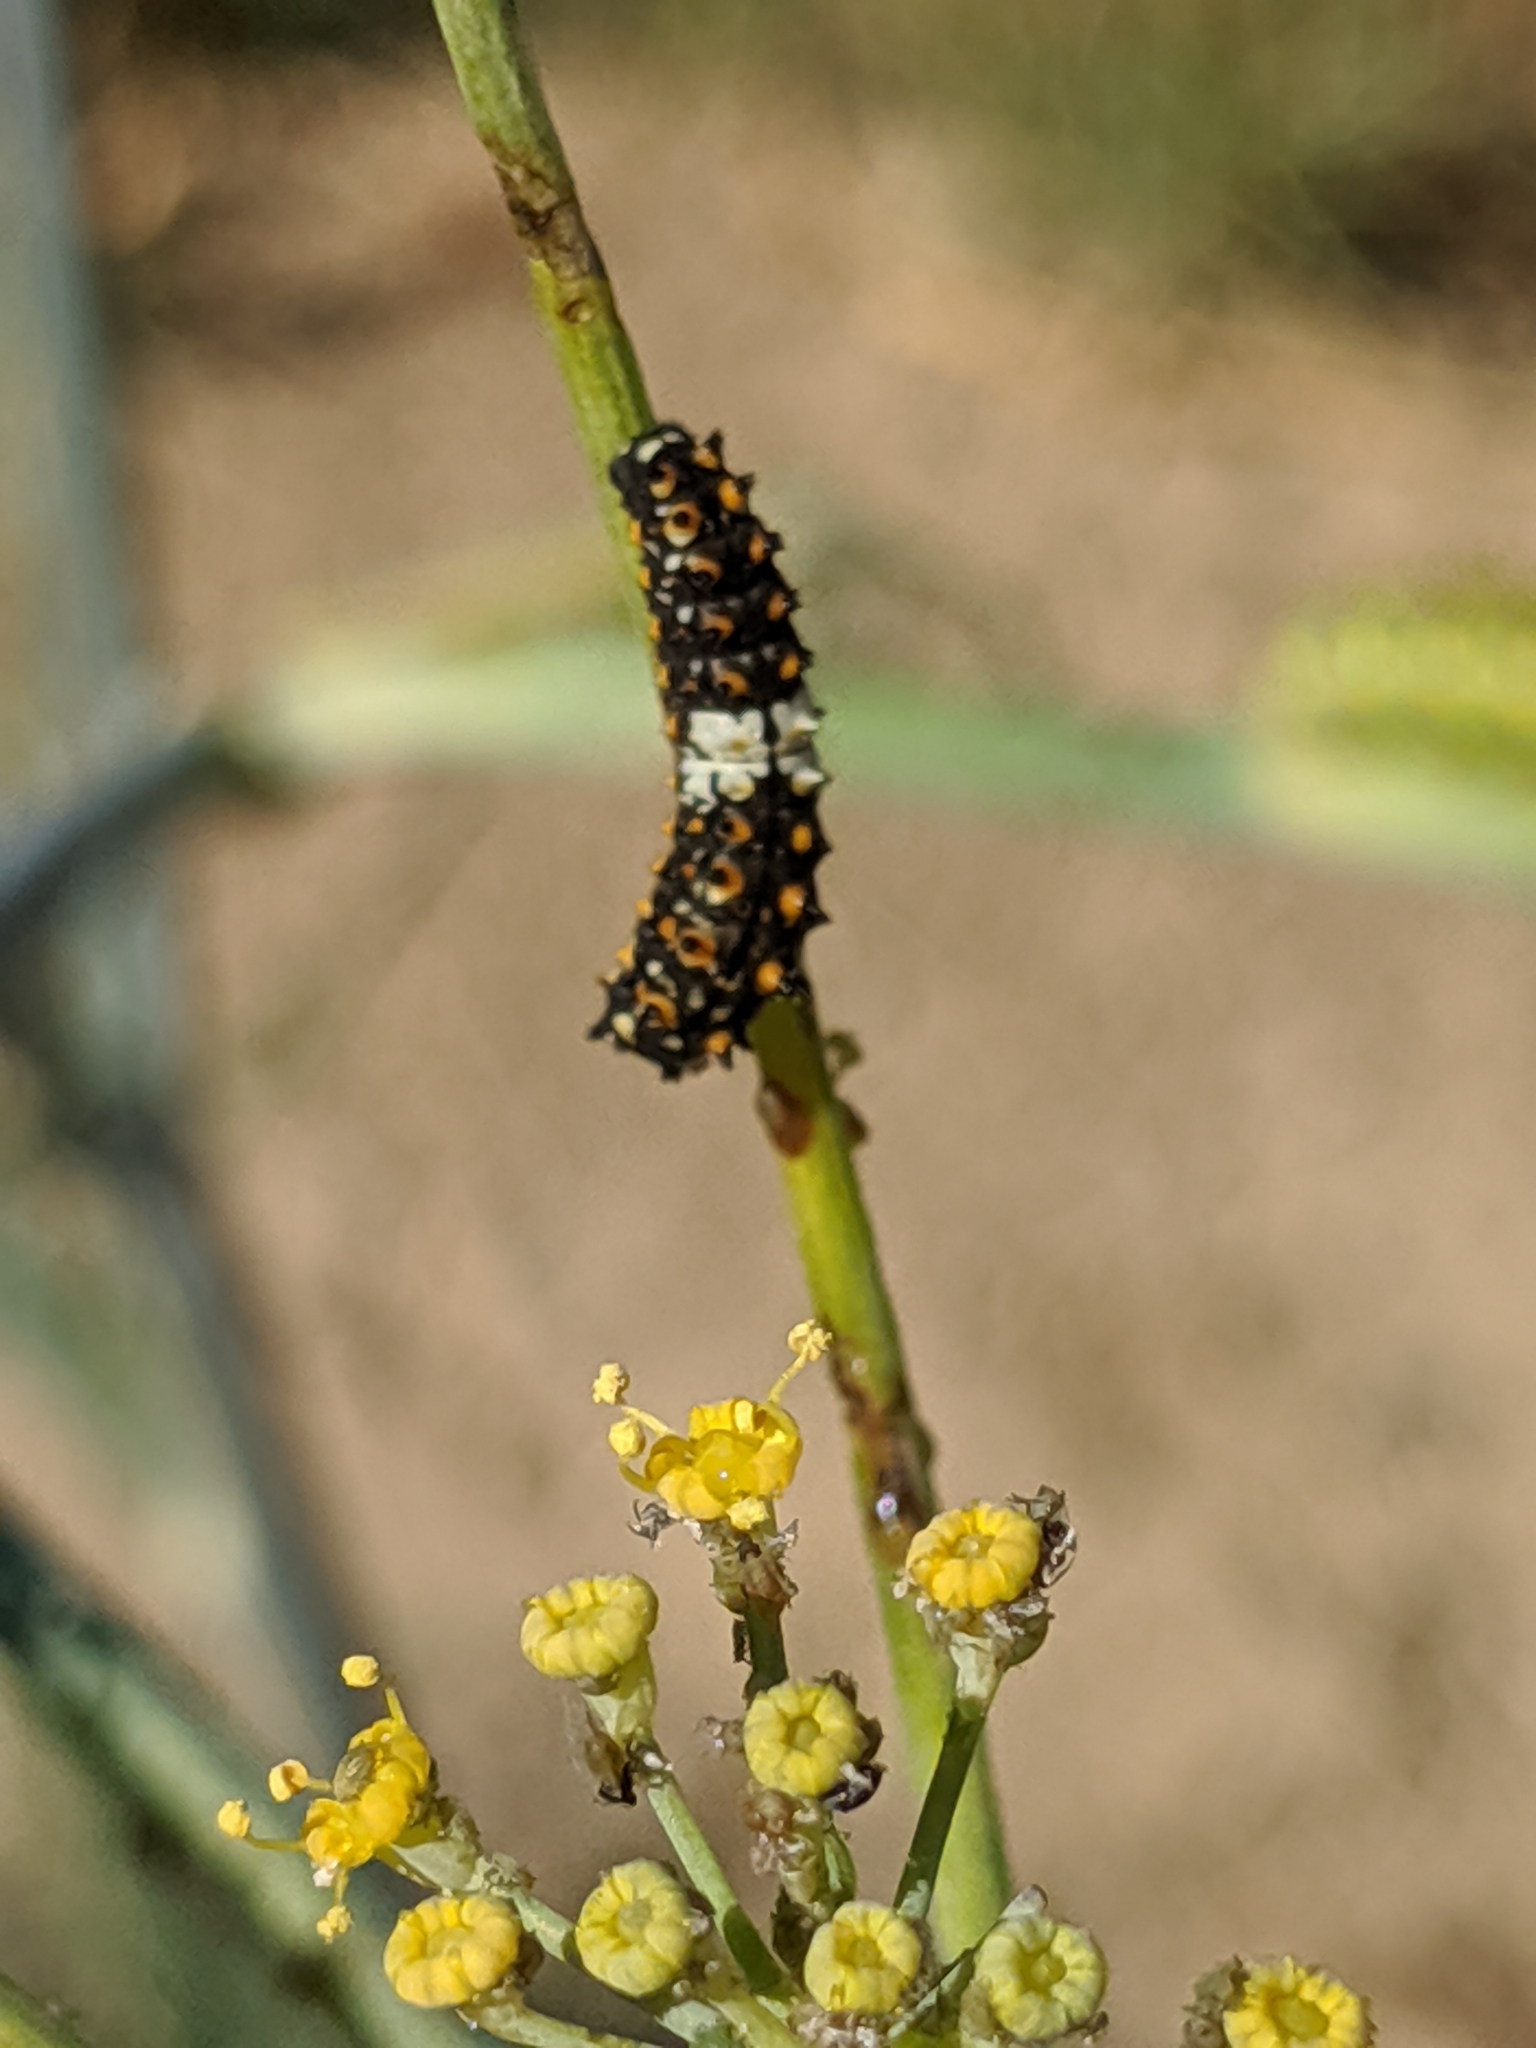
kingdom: Animalia
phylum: Arthropoda
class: Insecta
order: Lepidoptera
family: Papilionidae
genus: Papilio
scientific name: Papilio zelicaon
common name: Anise swallowtail
